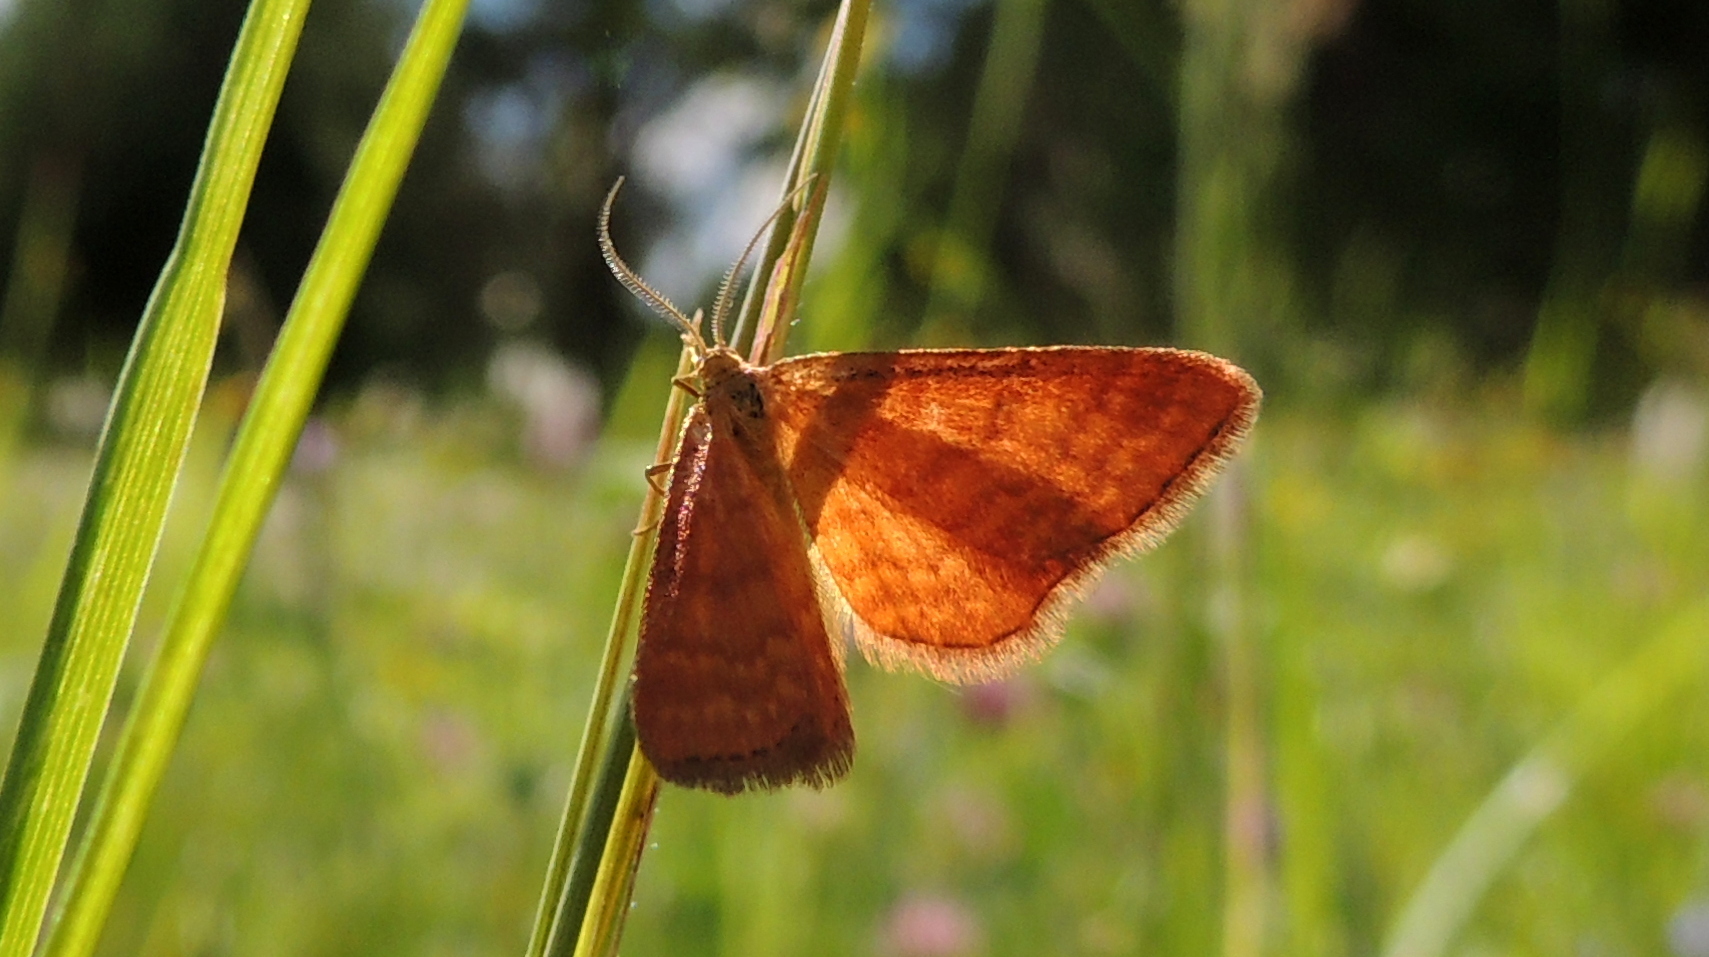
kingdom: Animalia
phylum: Arthropoda
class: Insecta
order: Lepidoptera
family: Geometridae
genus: Idaea
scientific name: Idaea serpentata
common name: Ochraceous wave
